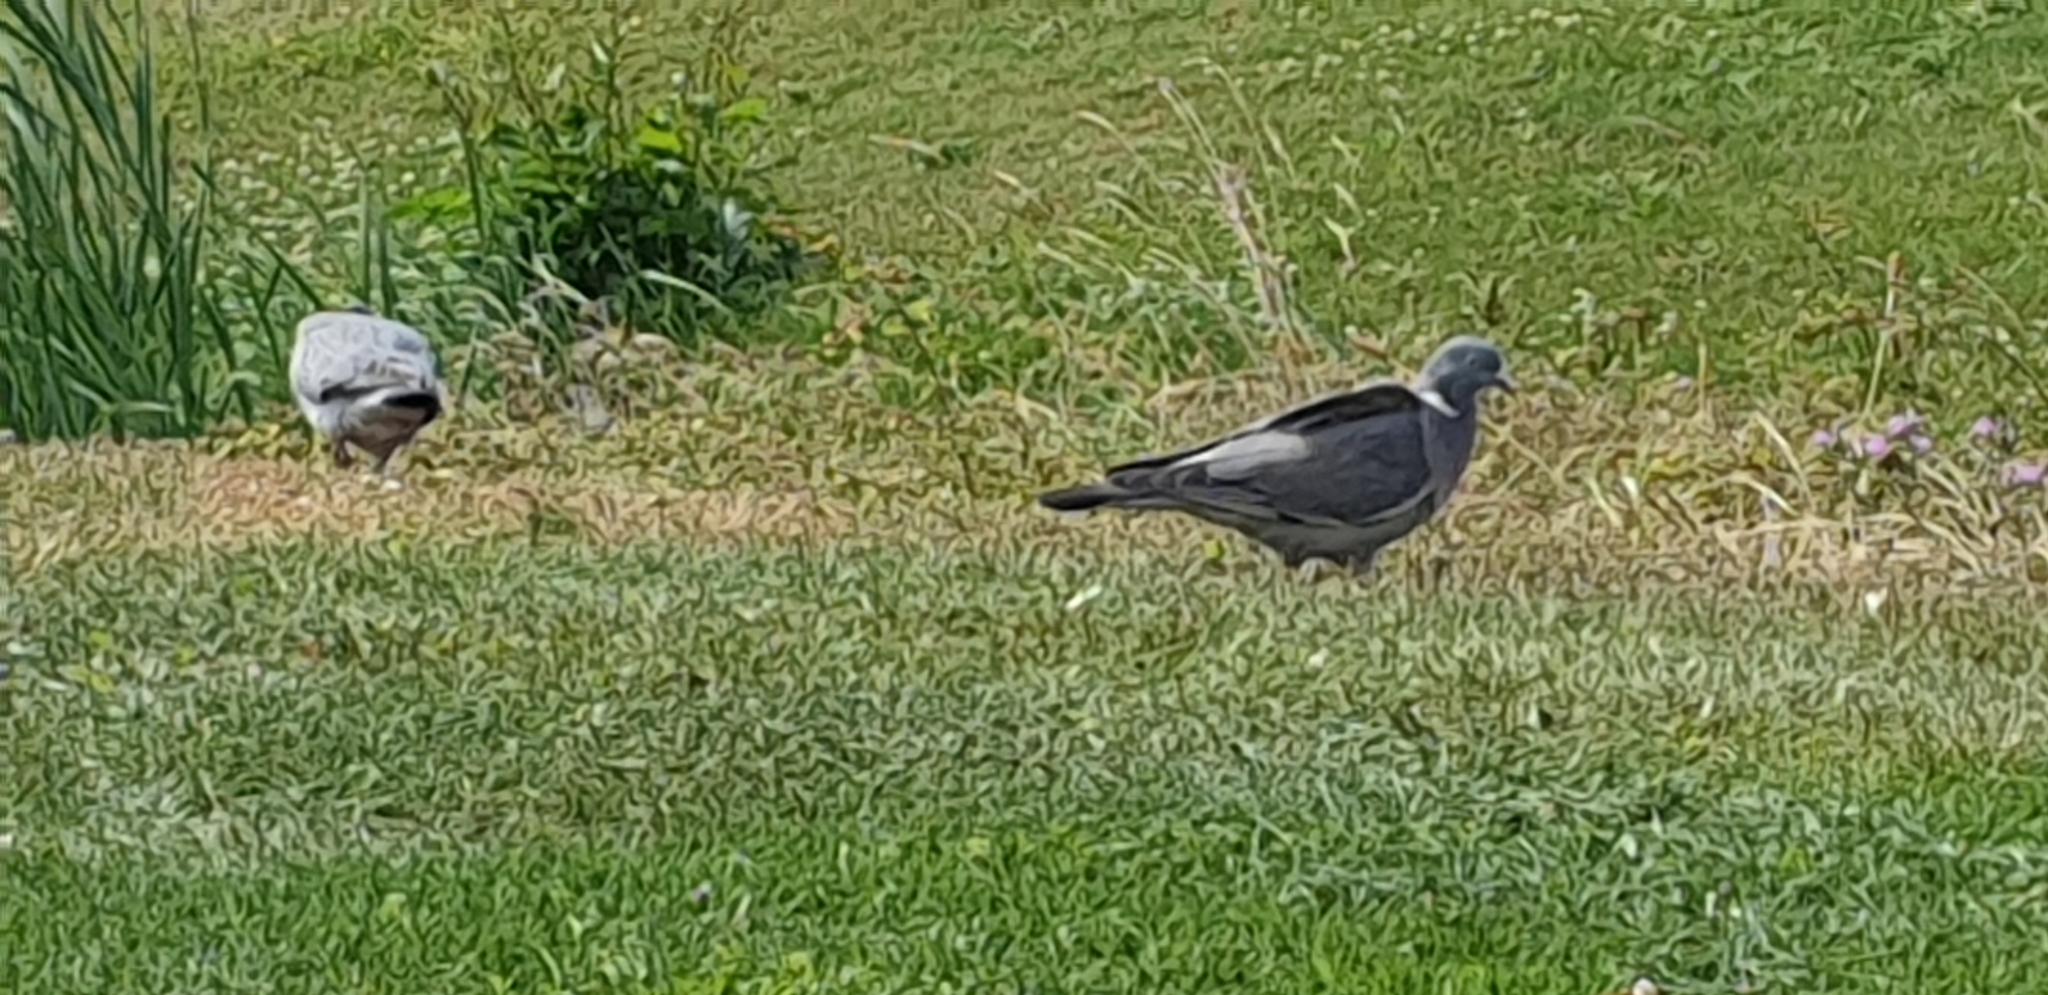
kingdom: Animalia
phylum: Chordata
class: Aves
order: Columbiformes
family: Columbidae
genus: Columba
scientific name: Columba palumbus
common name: Common wood pigeon
